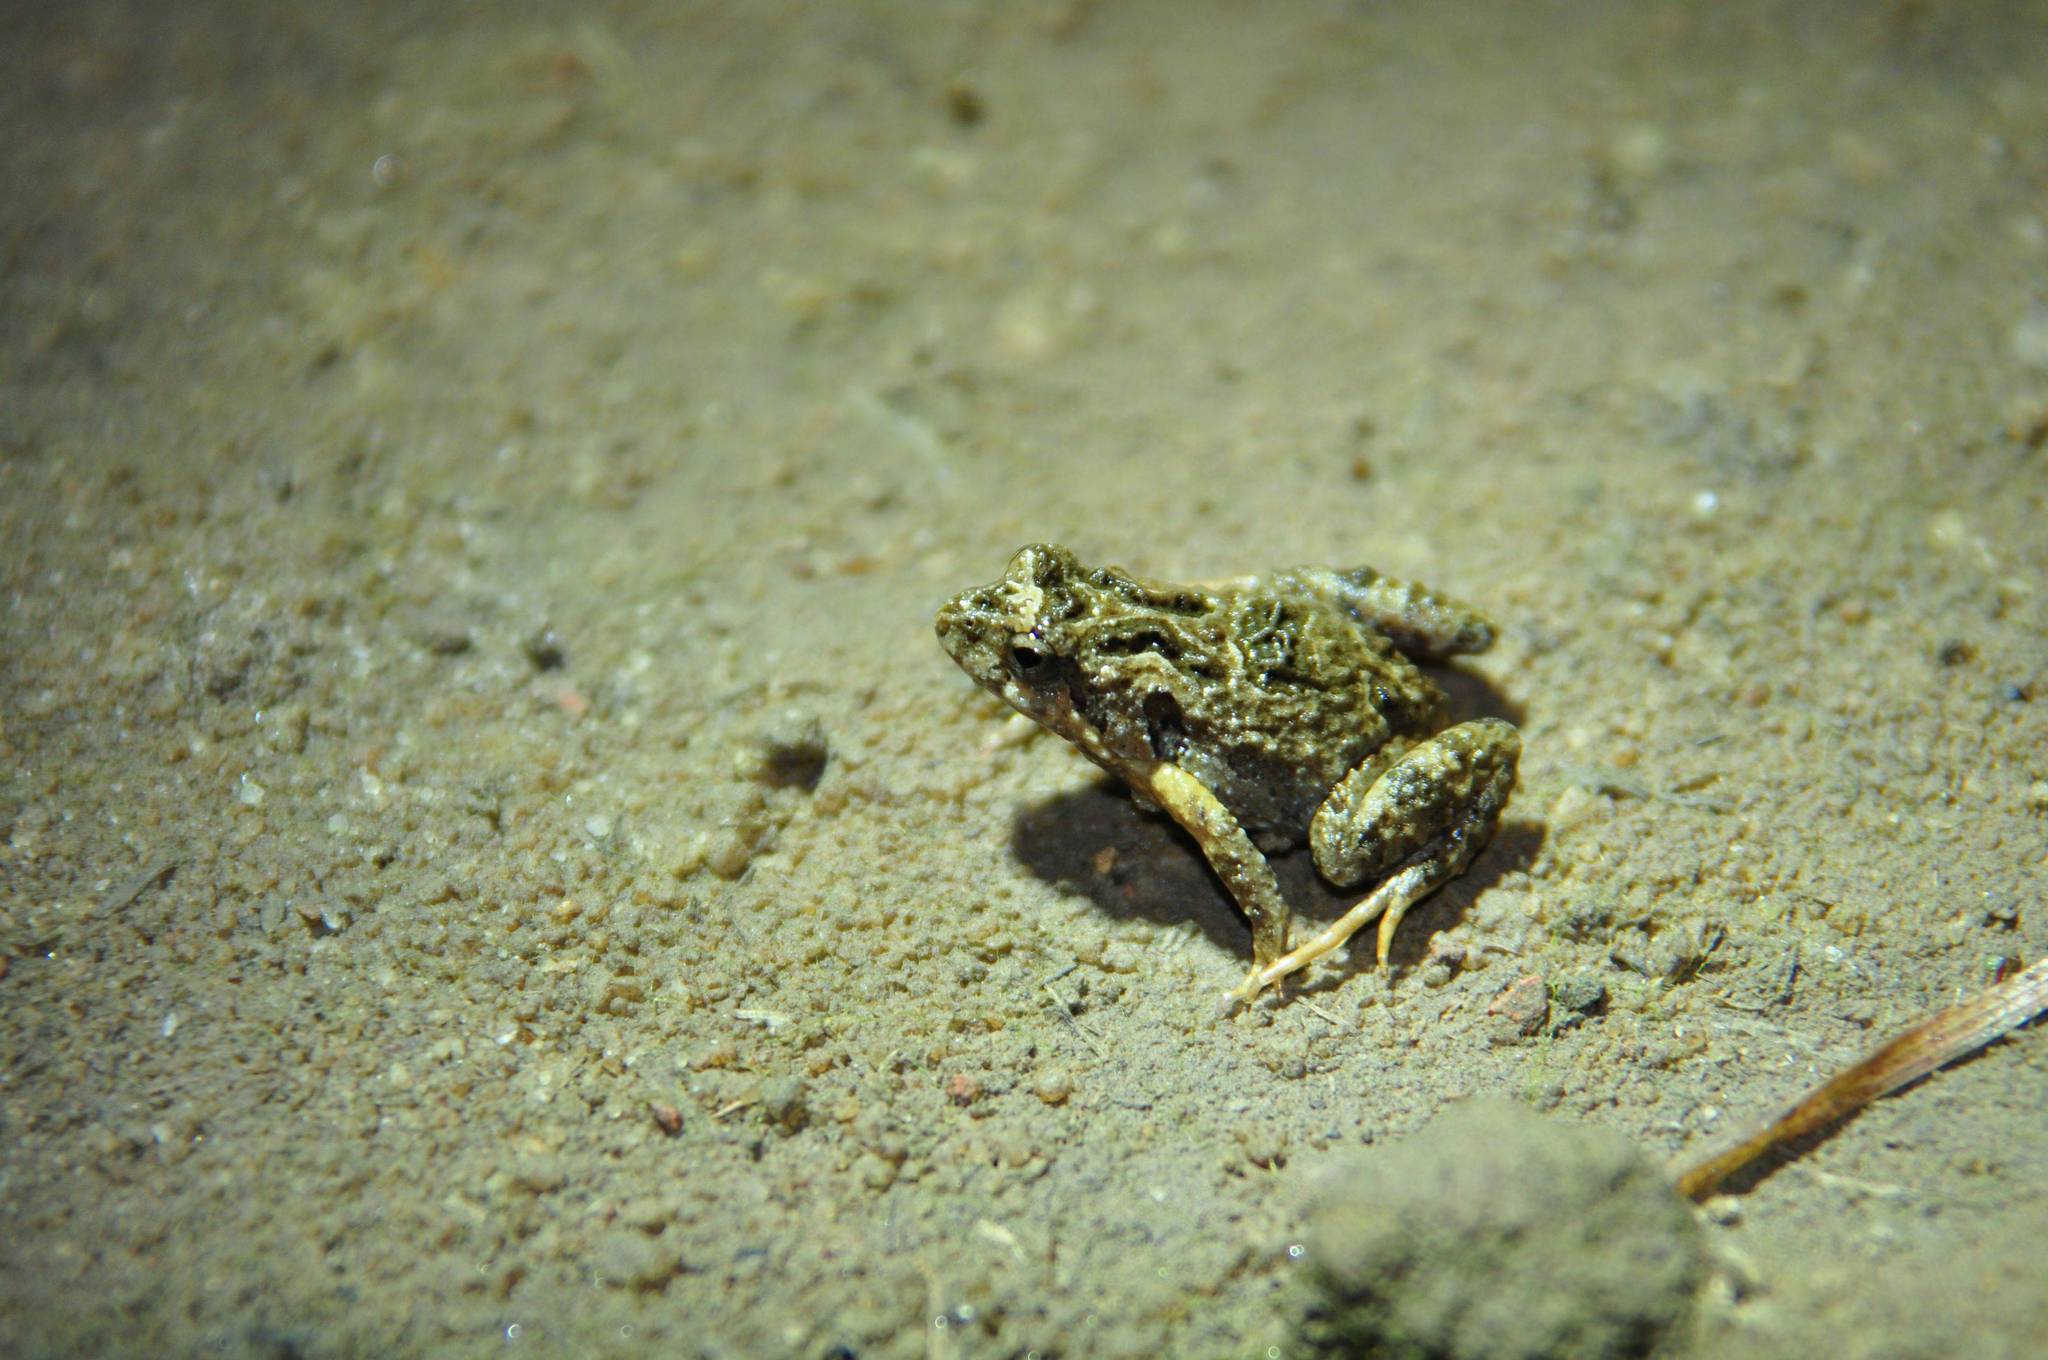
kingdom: Animalia
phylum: Chordata
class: Amphibia
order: Anura
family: Myobatrachidae
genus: Crinia
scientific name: Crinia signifera
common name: Brown froglet
